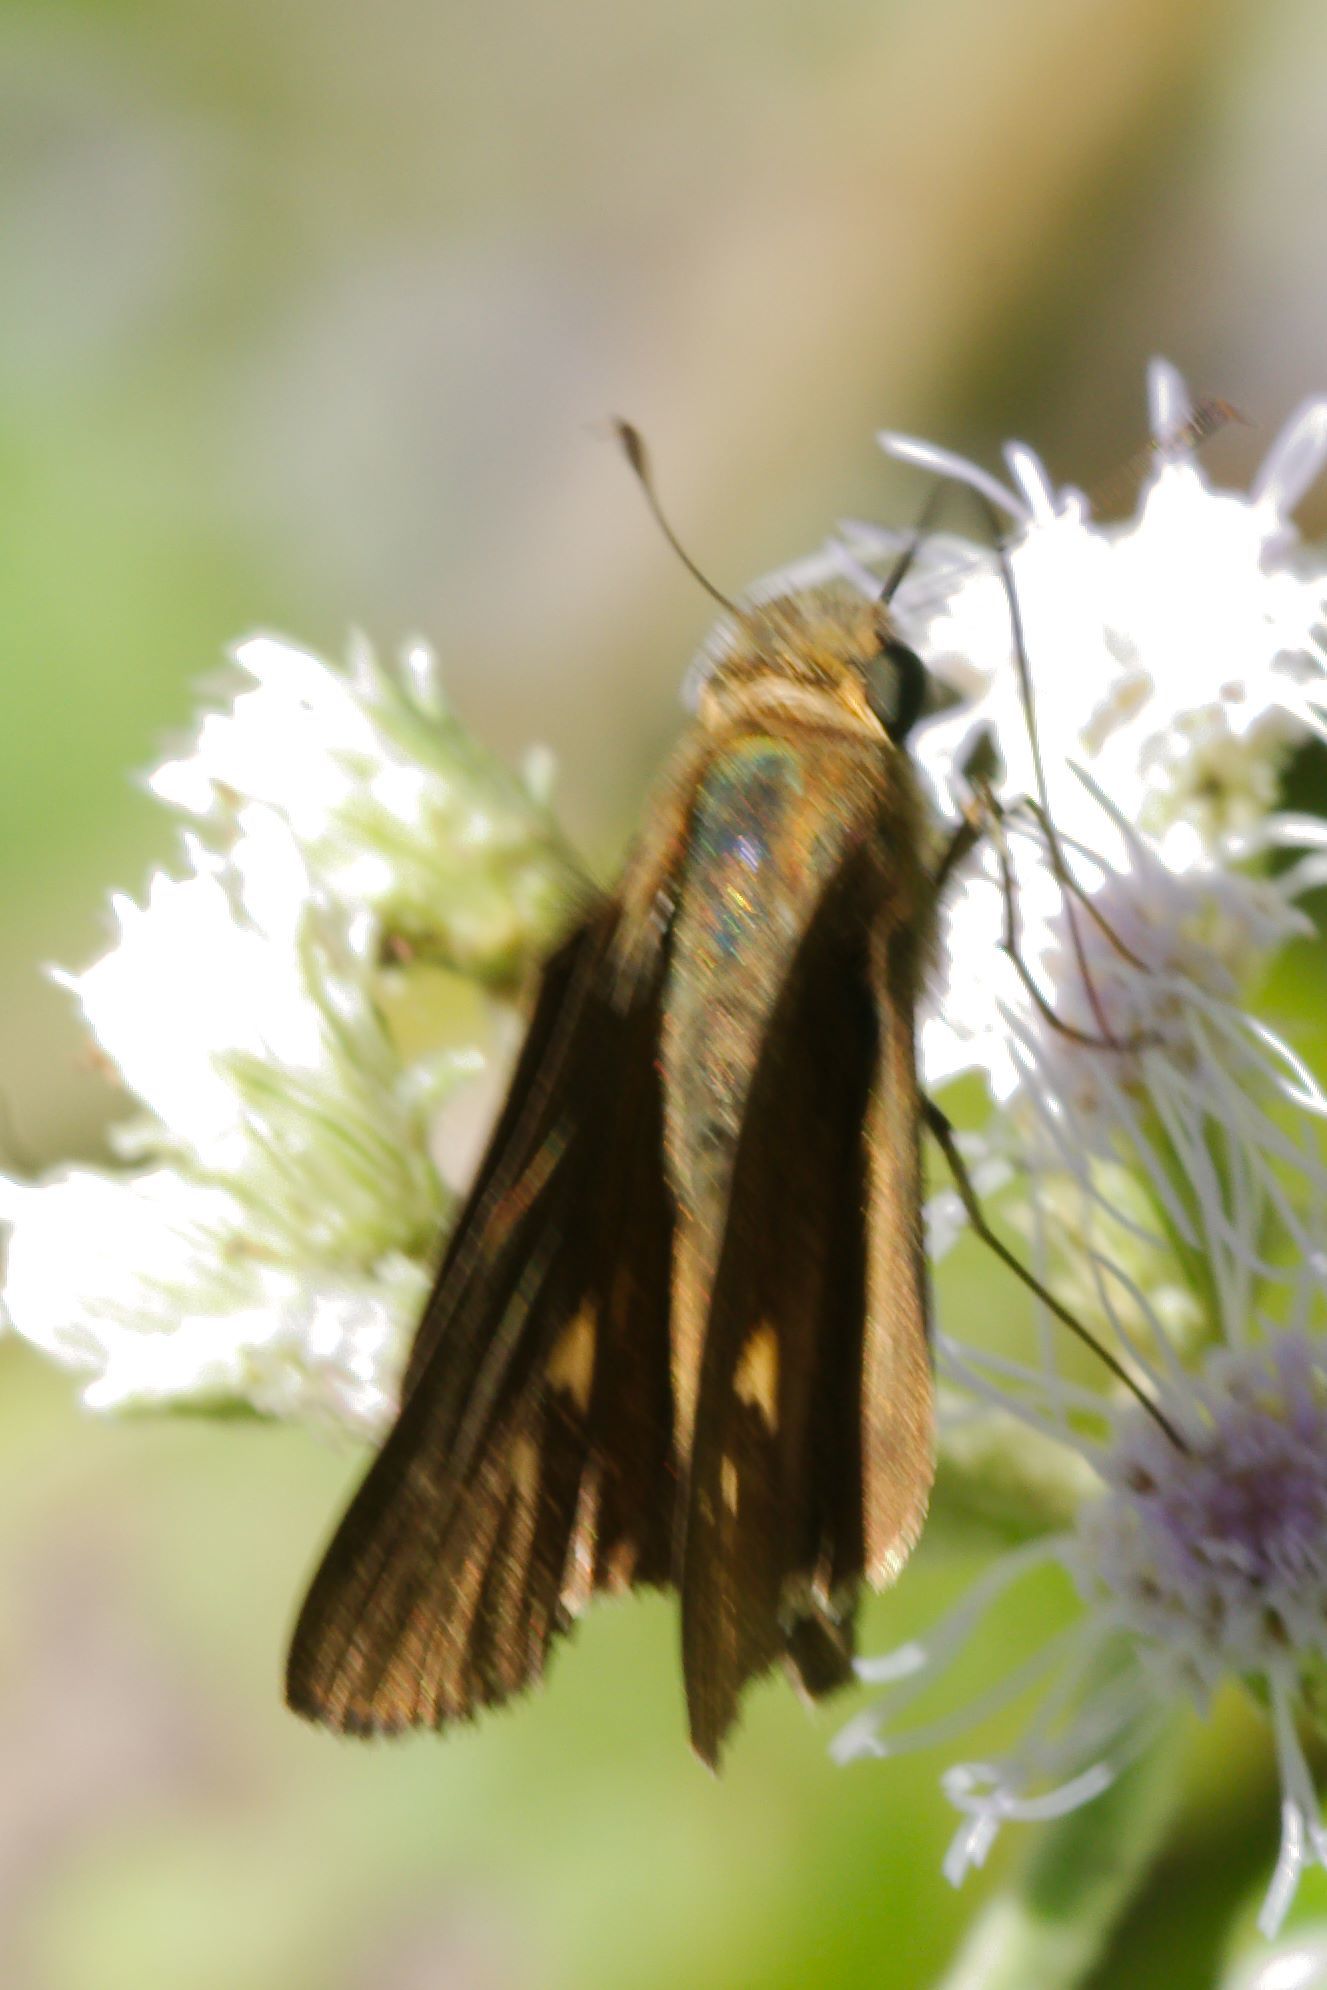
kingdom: Animalia
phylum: Arthropoda
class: Insecta
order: Lepidoptera
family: Hesperiidae
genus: Panoquina
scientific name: Panoquina ocola
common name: Ocola skipper
